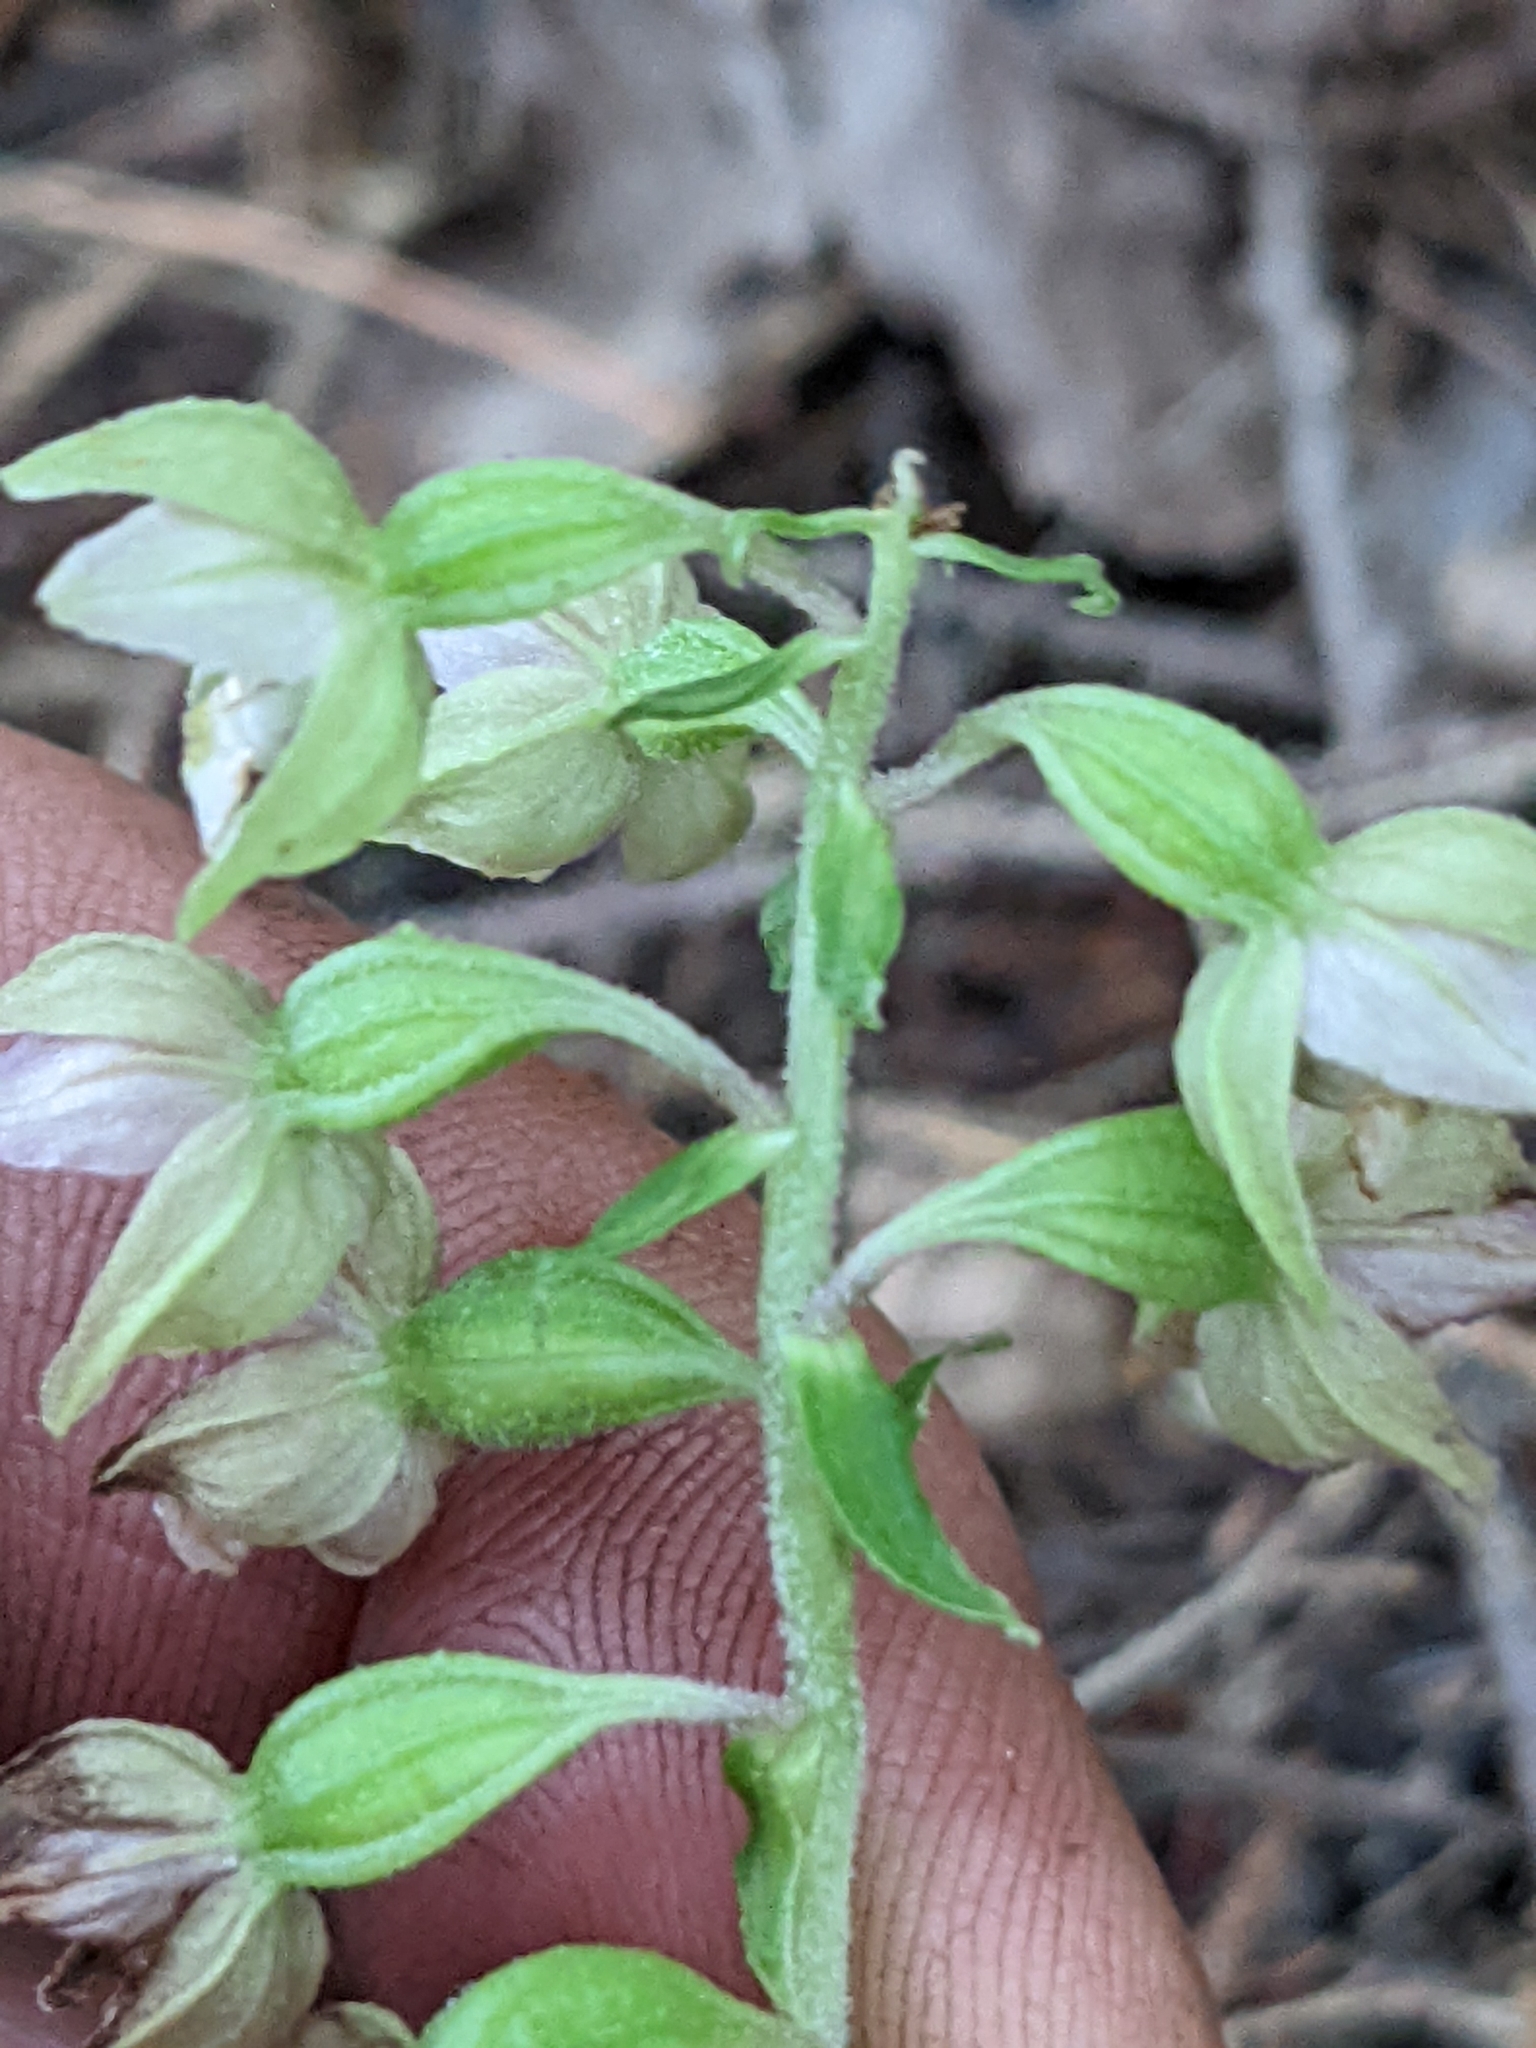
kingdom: Plantae
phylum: Tracheophyta
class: Liliopsida
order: Asparagales
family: Orchidaceae
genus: Epipactis
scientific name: Epipactis helleborine
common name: Broad-leaved helleborine
